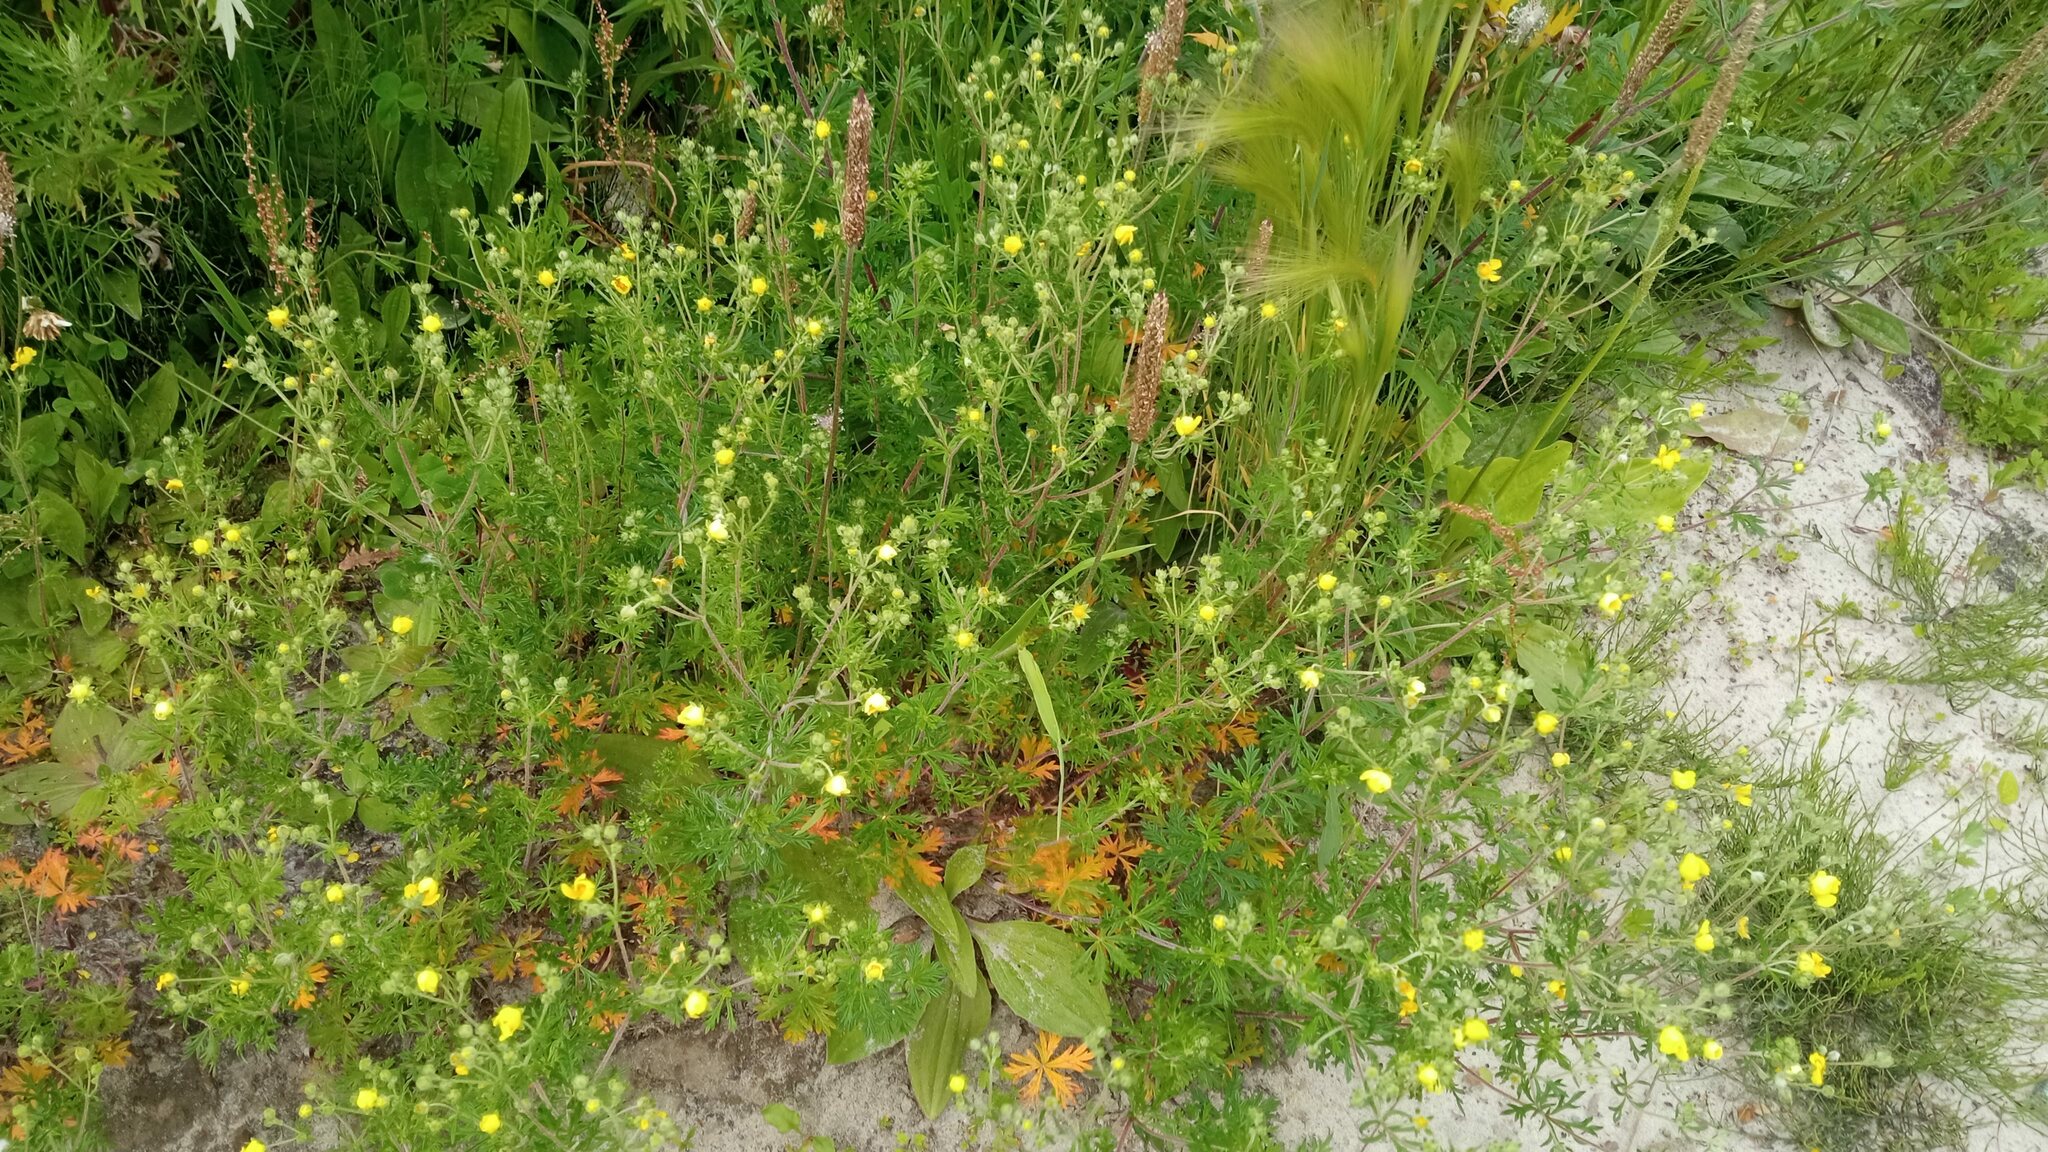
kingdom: Plantae
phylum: Tracheophyta
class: Magnoliopsida
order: Rosales
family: Rosaceae
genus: Potentilla
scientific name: Potentilla argentea
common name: Hoary cinquefoil
